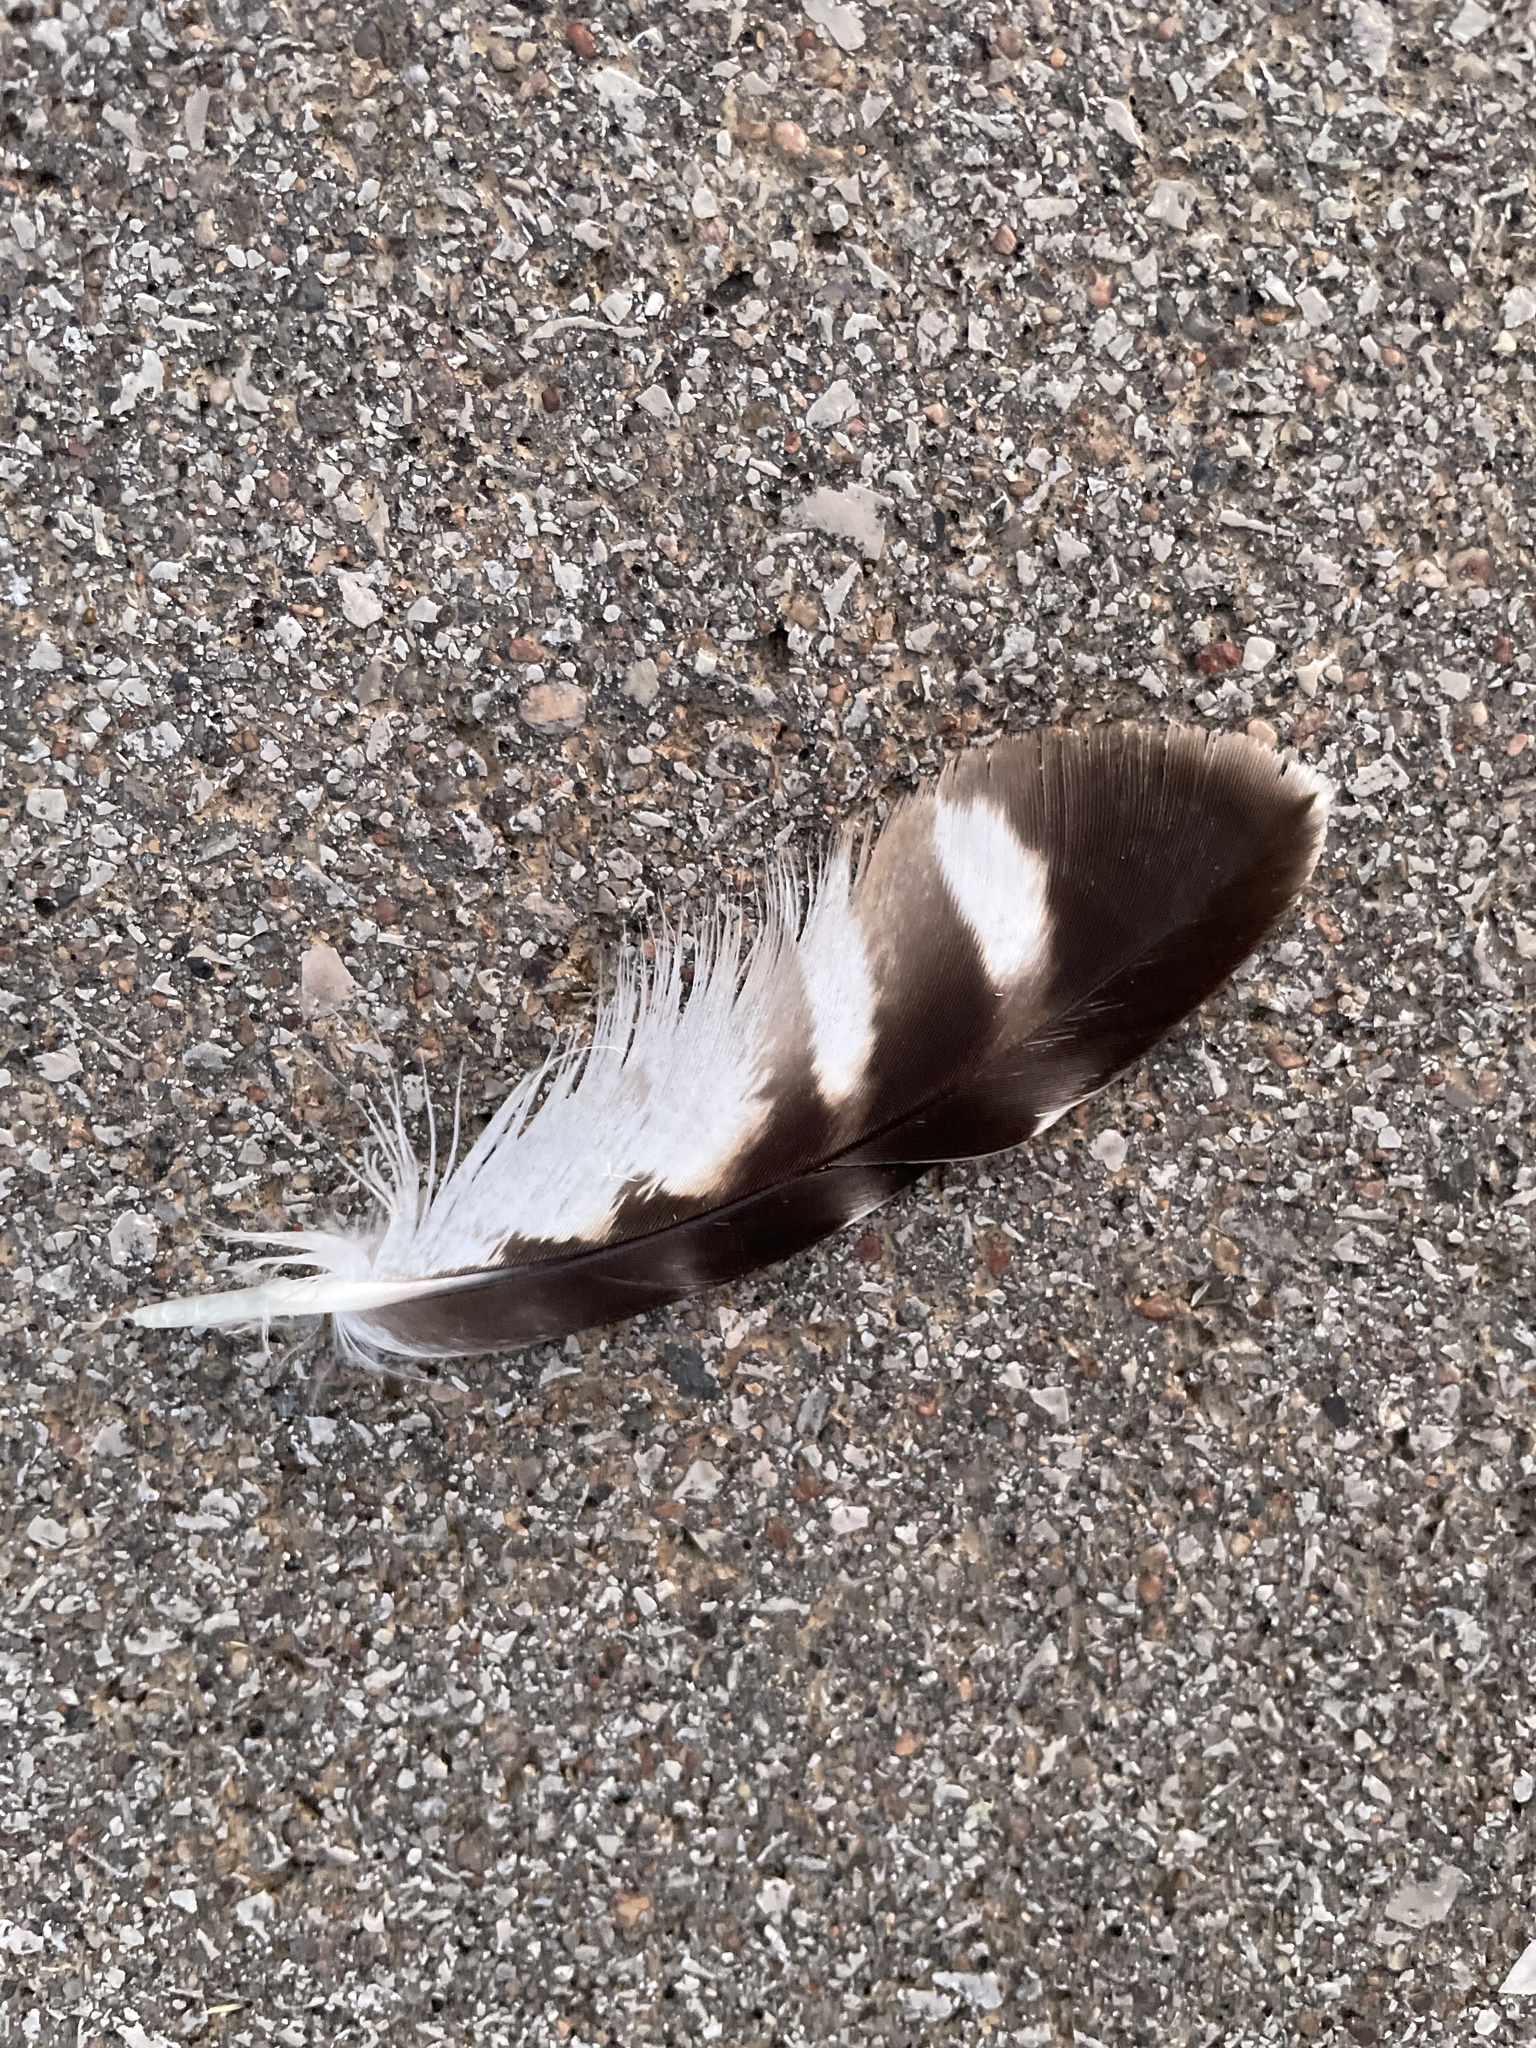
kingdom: Animalia
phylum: Chordata
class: Aves
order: Accipitriformes
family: Accipitridae
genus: Buteo
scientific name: Buteo lineatus
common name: Red-shouldered hawk
